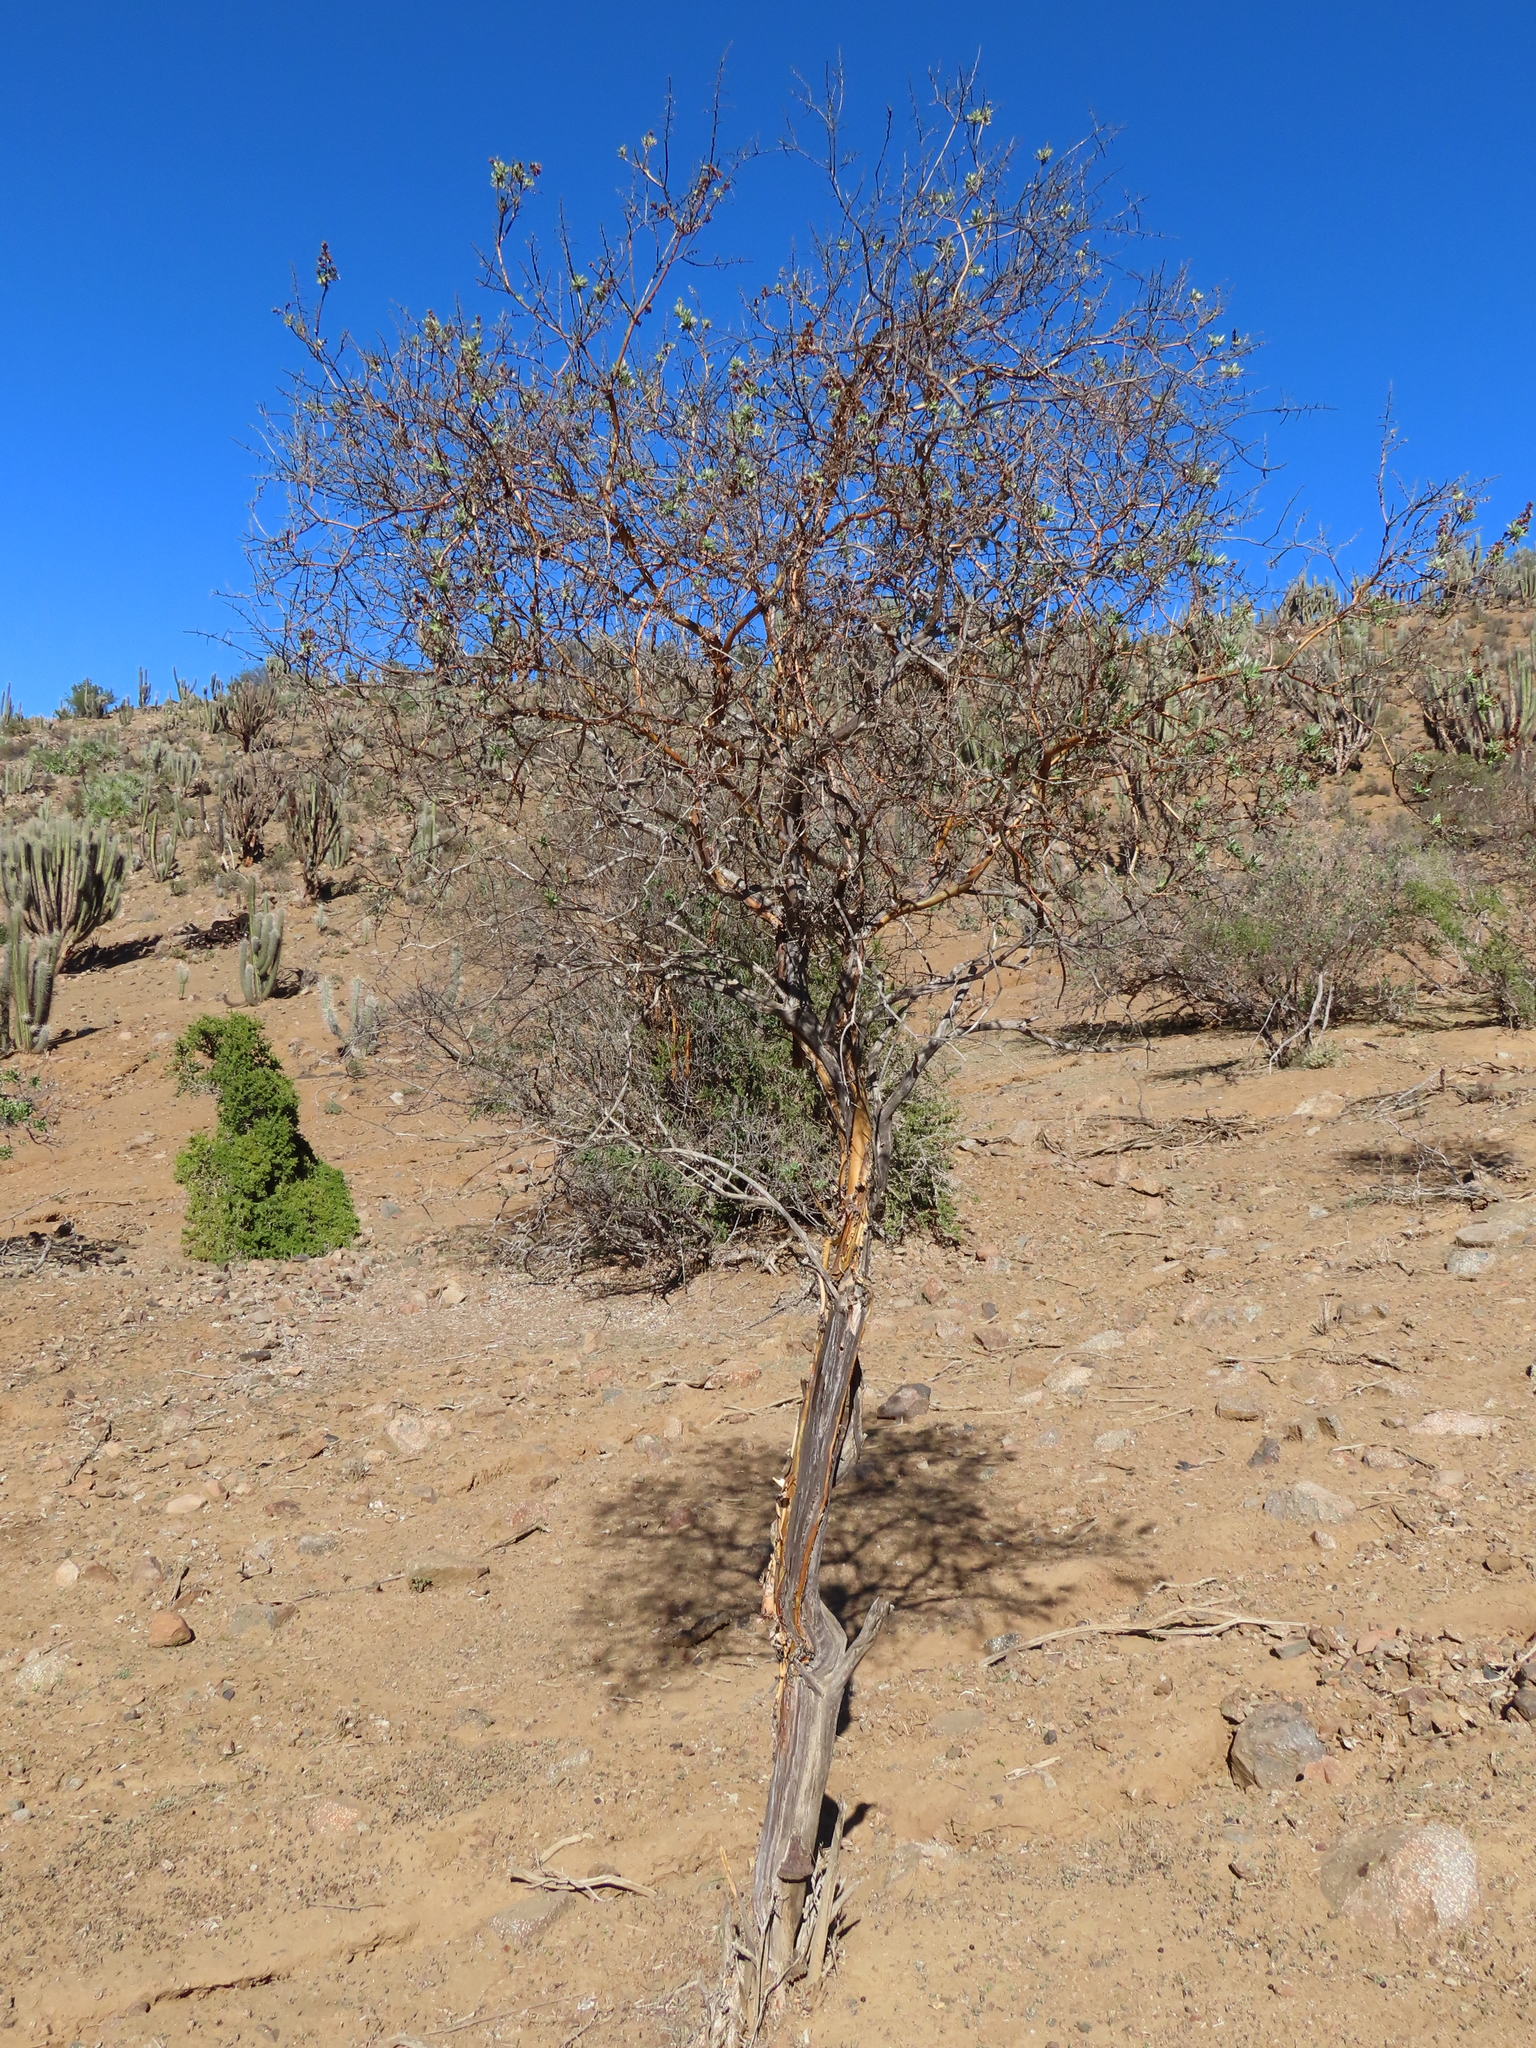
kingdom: Plantae
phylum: Tracheophyta
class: Magnoliopsida
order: Asterales
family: Asteraceae
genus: Proustia
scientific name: Proustia cuneifolia
